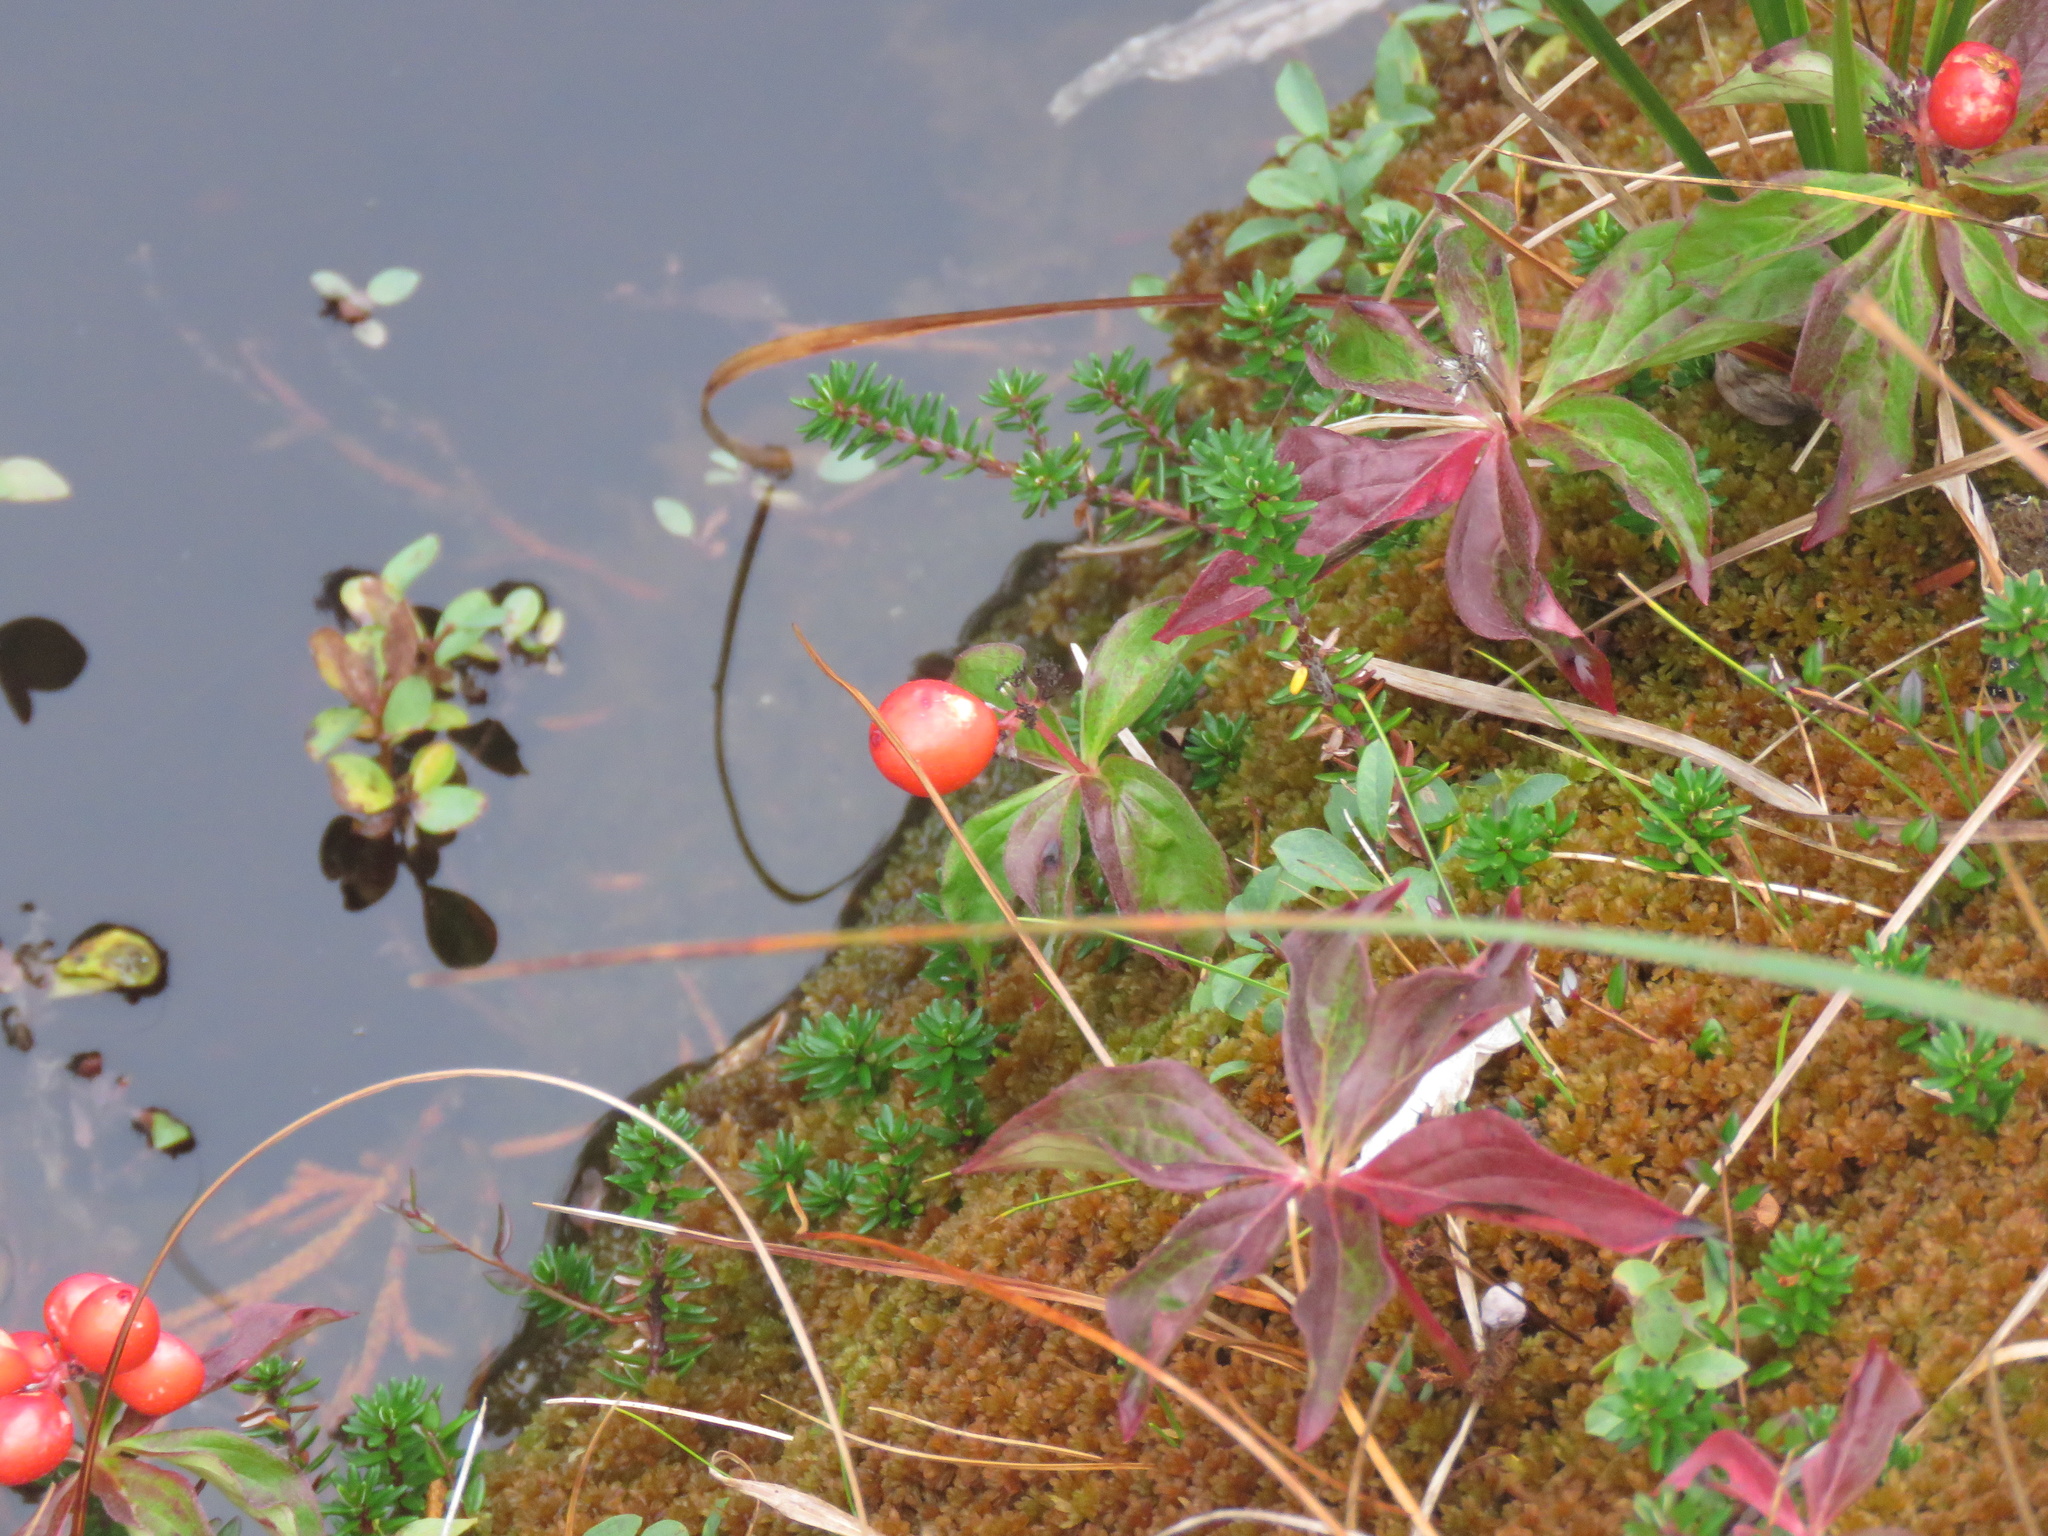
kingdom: Plantae
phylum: Tracheophyta
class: Magnoliopsida
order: Cornales
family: Cornaceae
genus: Cornus
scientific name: Cornus unalaschkensis
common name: Alaska bunchberry
